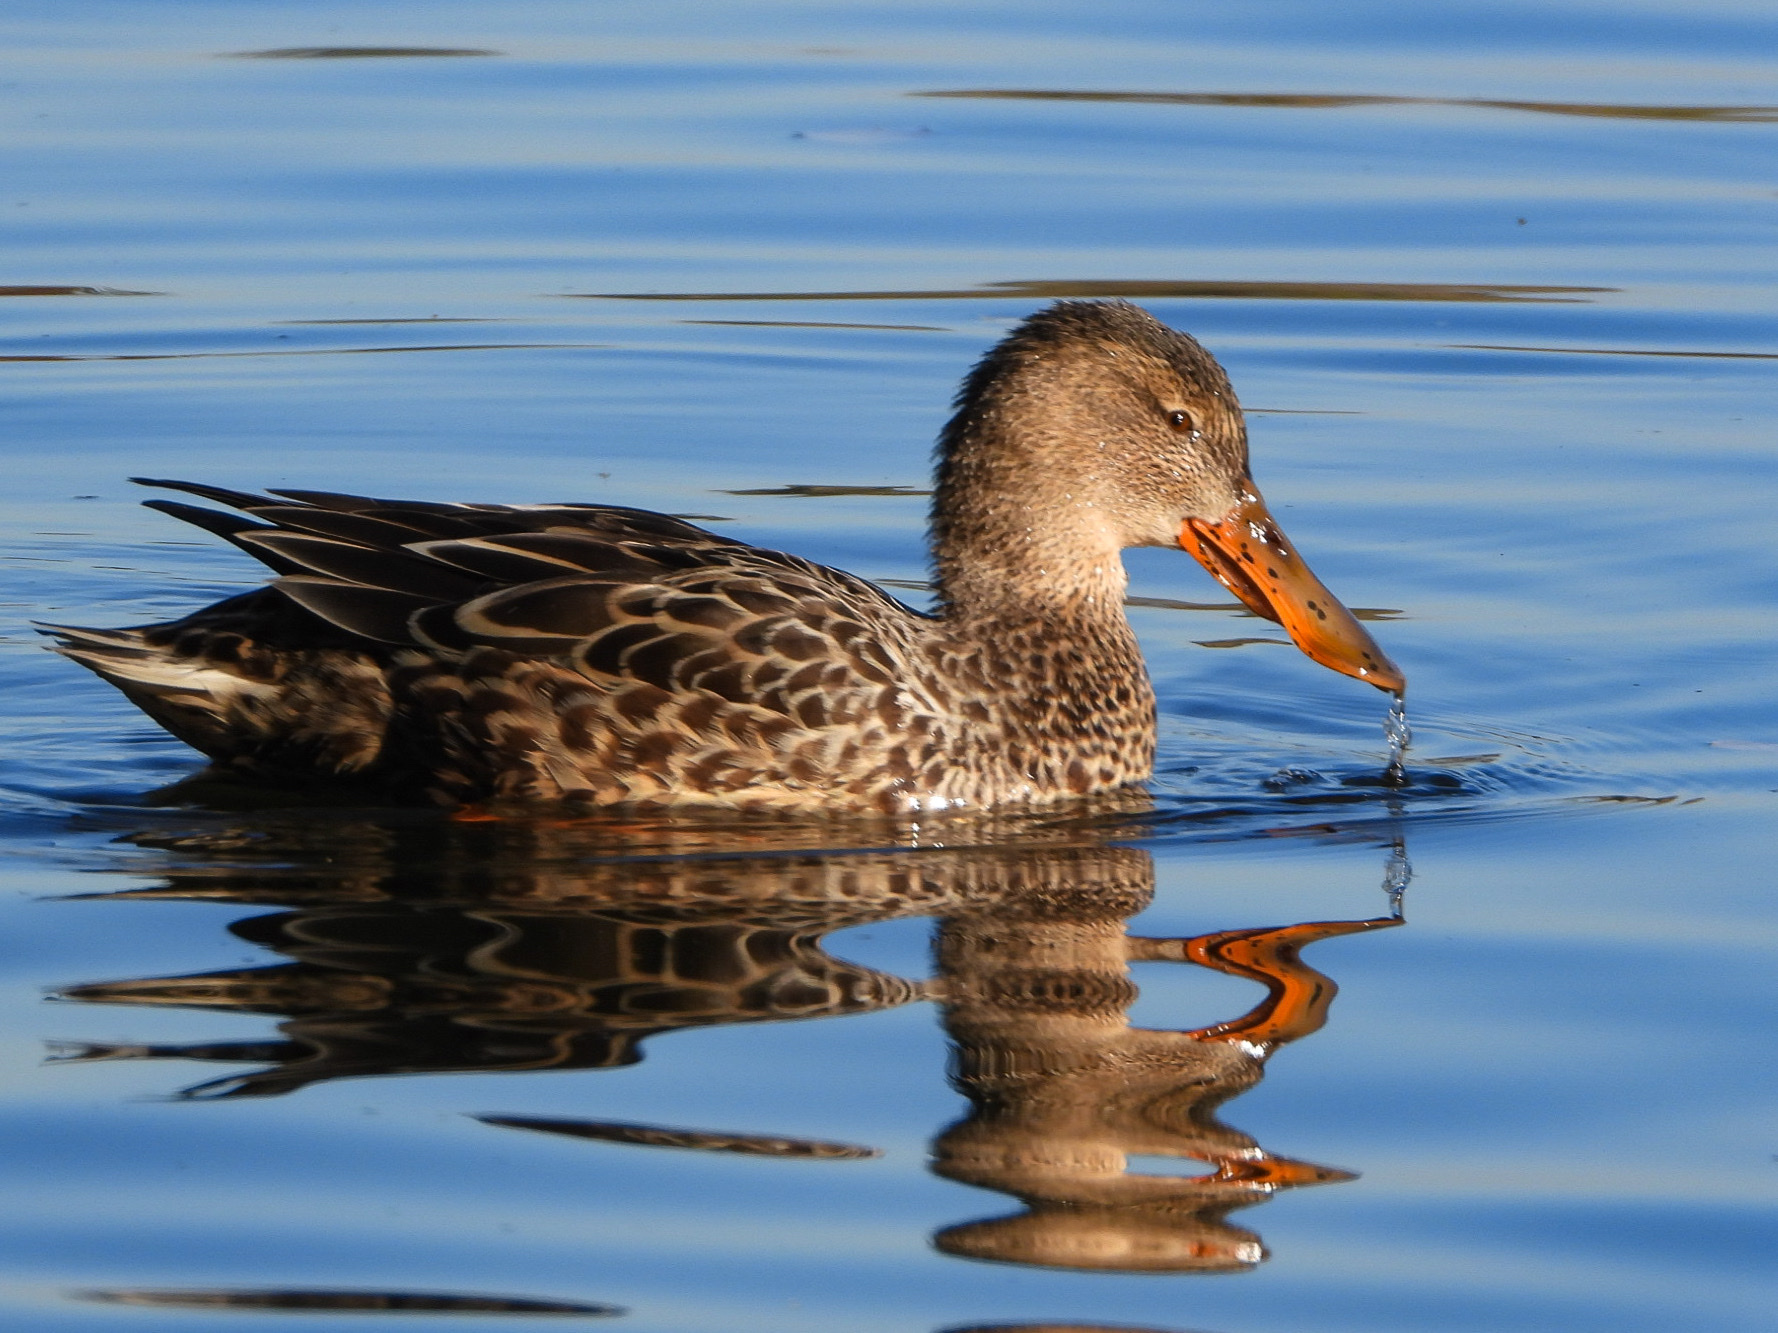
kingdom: Animalia
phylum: Chordata
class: Aves
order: Anseriformes
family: Anatidae
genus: Spatula
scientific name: Spatula clypeata
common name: Northern shoveler
